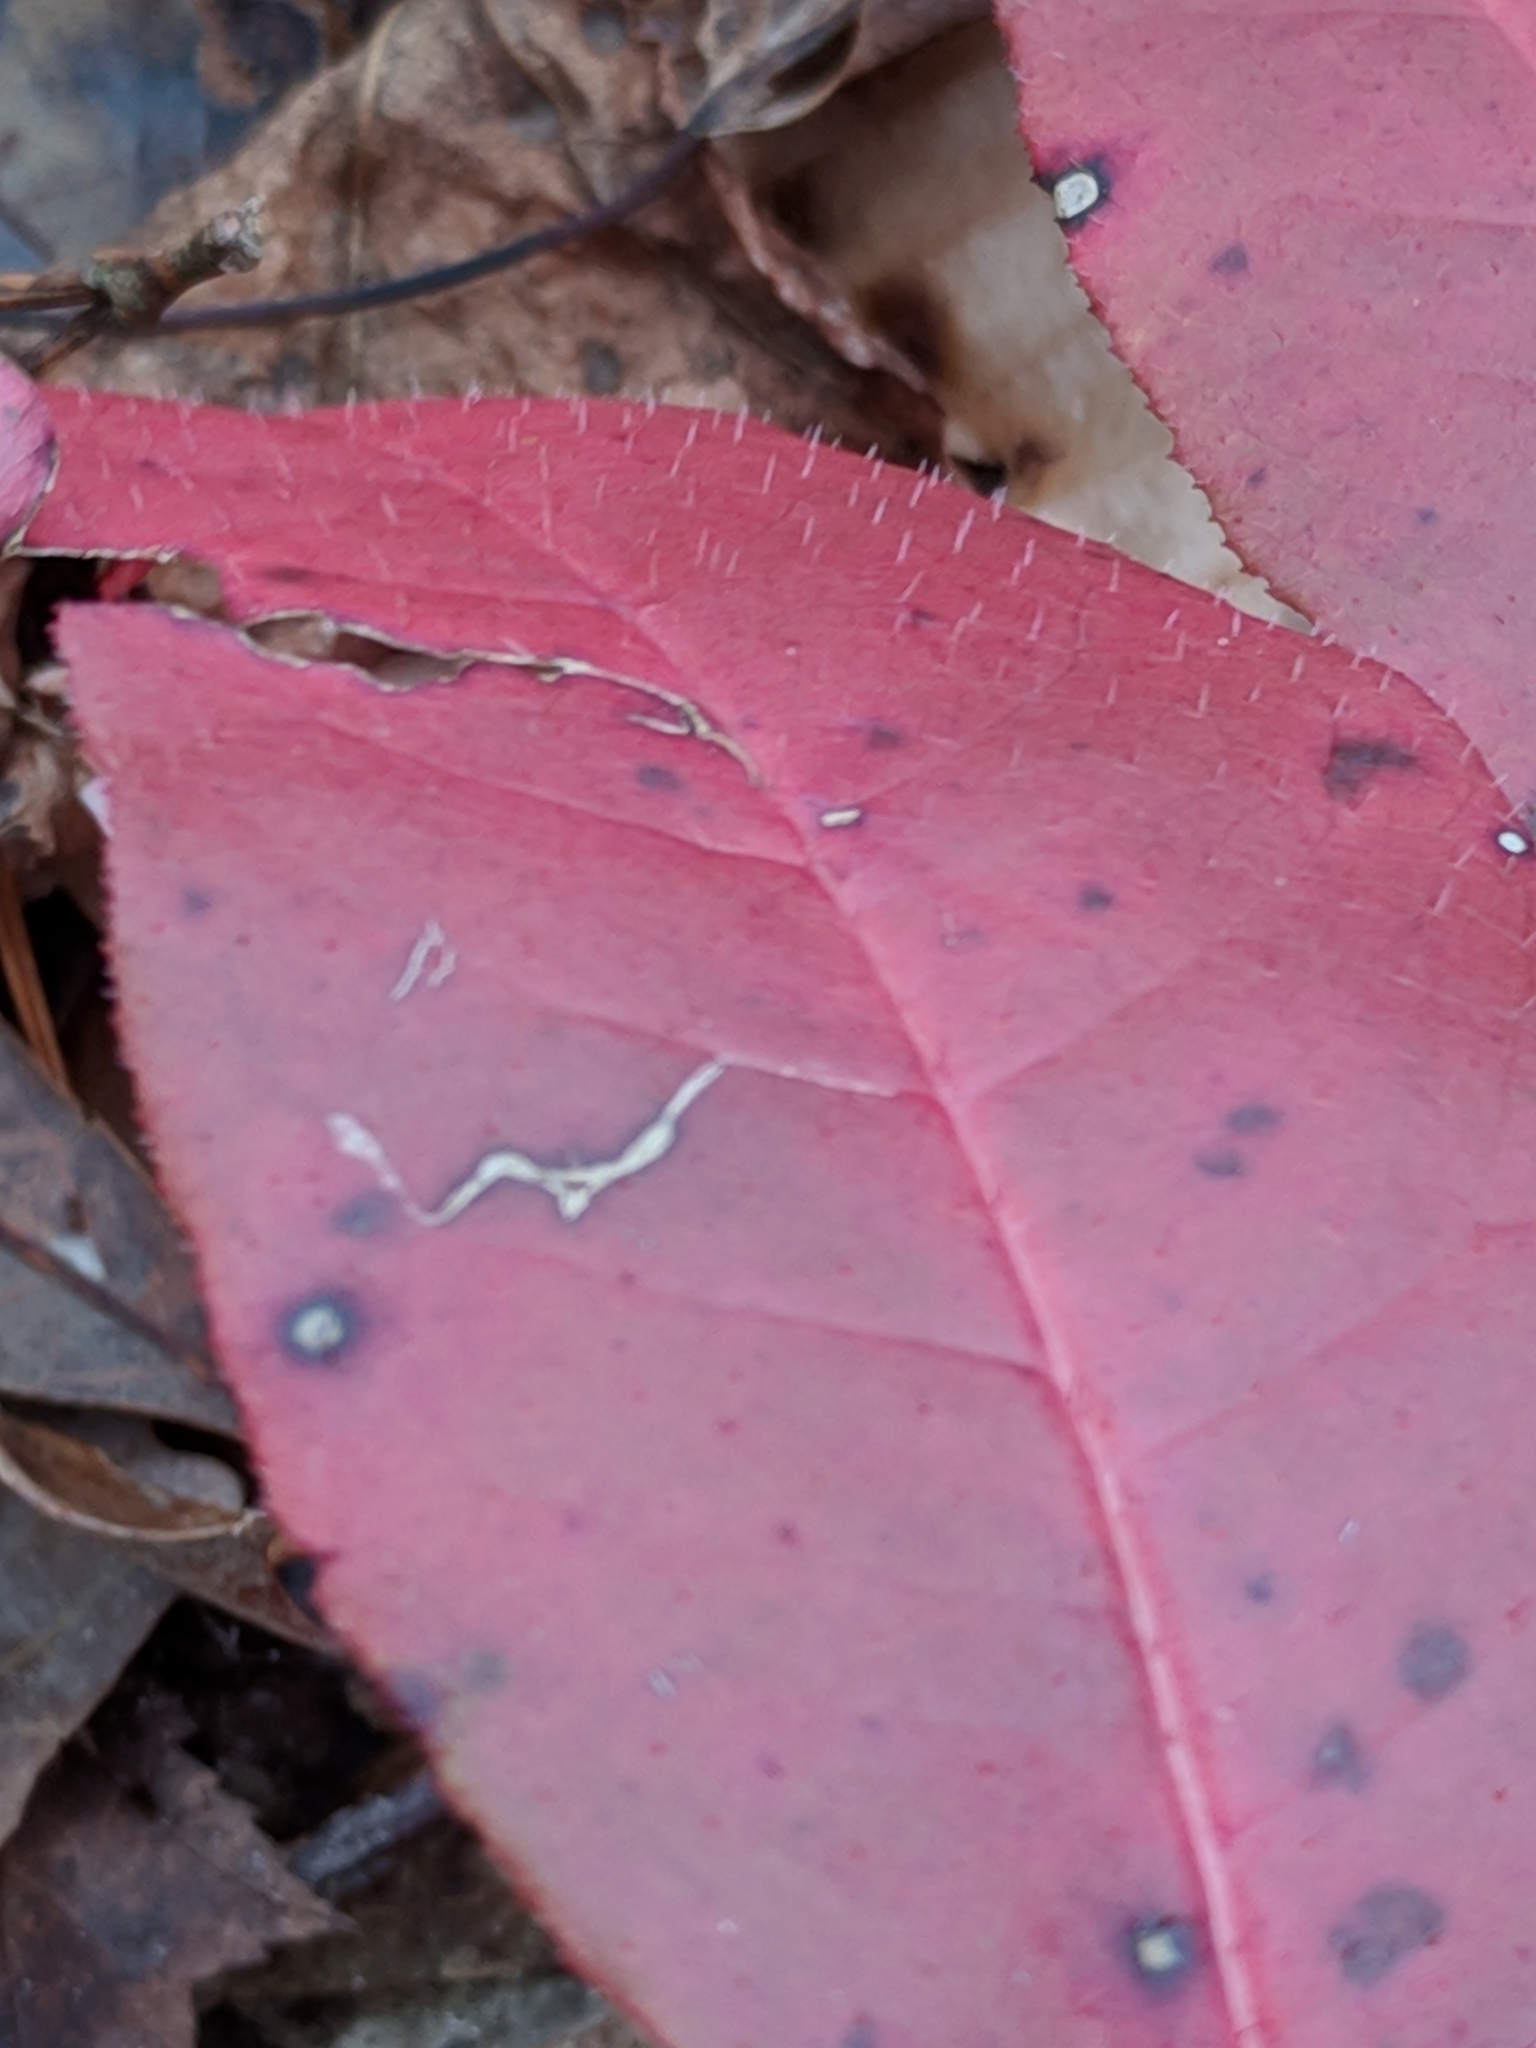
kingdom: Plantae
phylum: Tracheophyta
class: Magnoliopsida
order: Ericales
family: Ericaceae
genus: Oxydendrum
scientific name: Oxydendrum arboreum
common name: Sourwood
